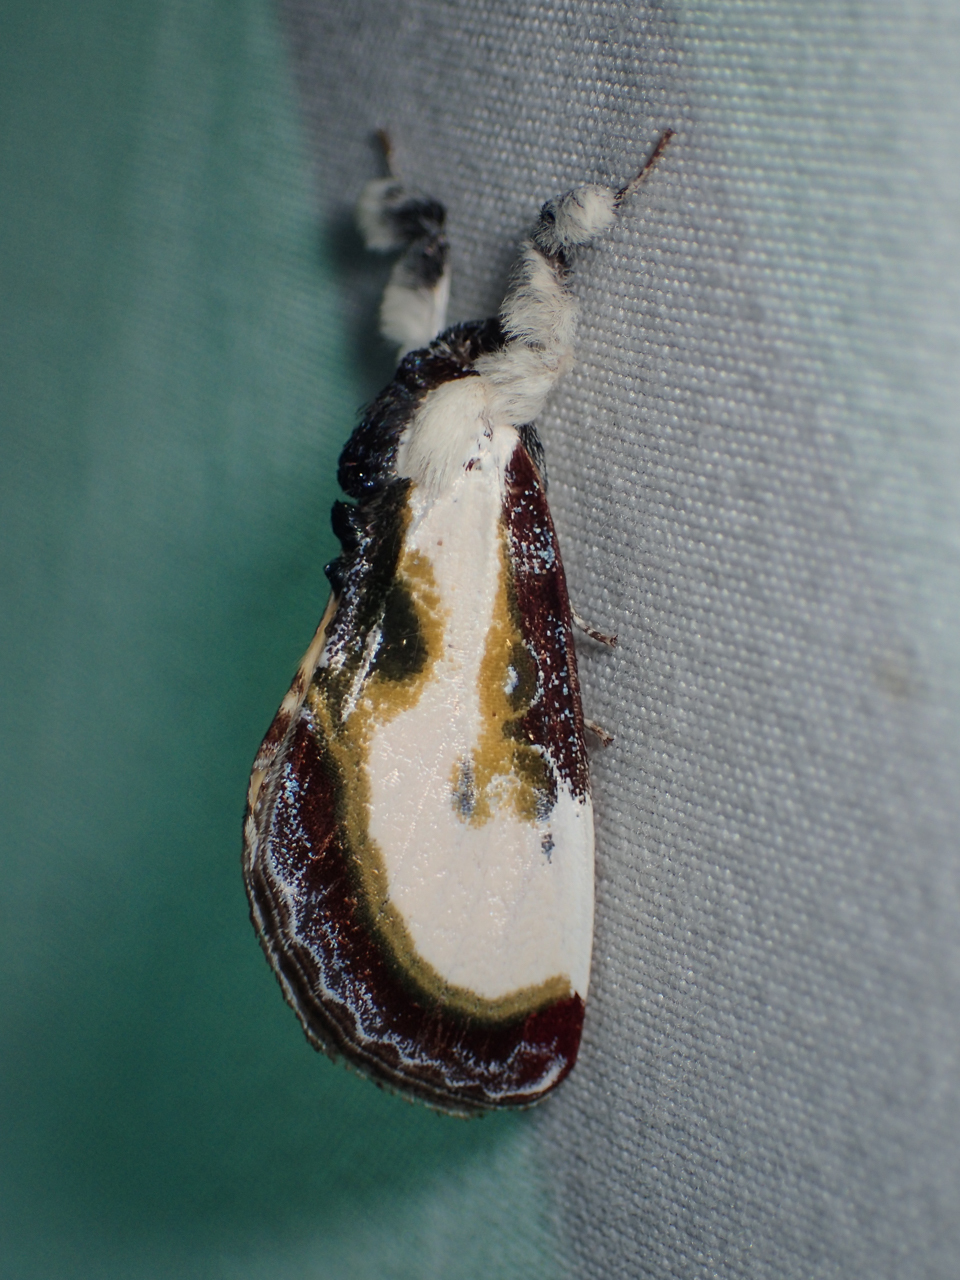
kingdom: Animalia
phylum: Arthropoda
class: Insecta
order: Lepidoptera
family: Noctuidae
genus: Eudryas
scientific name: Eudryas grata
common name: Beautiful wood-nymph
